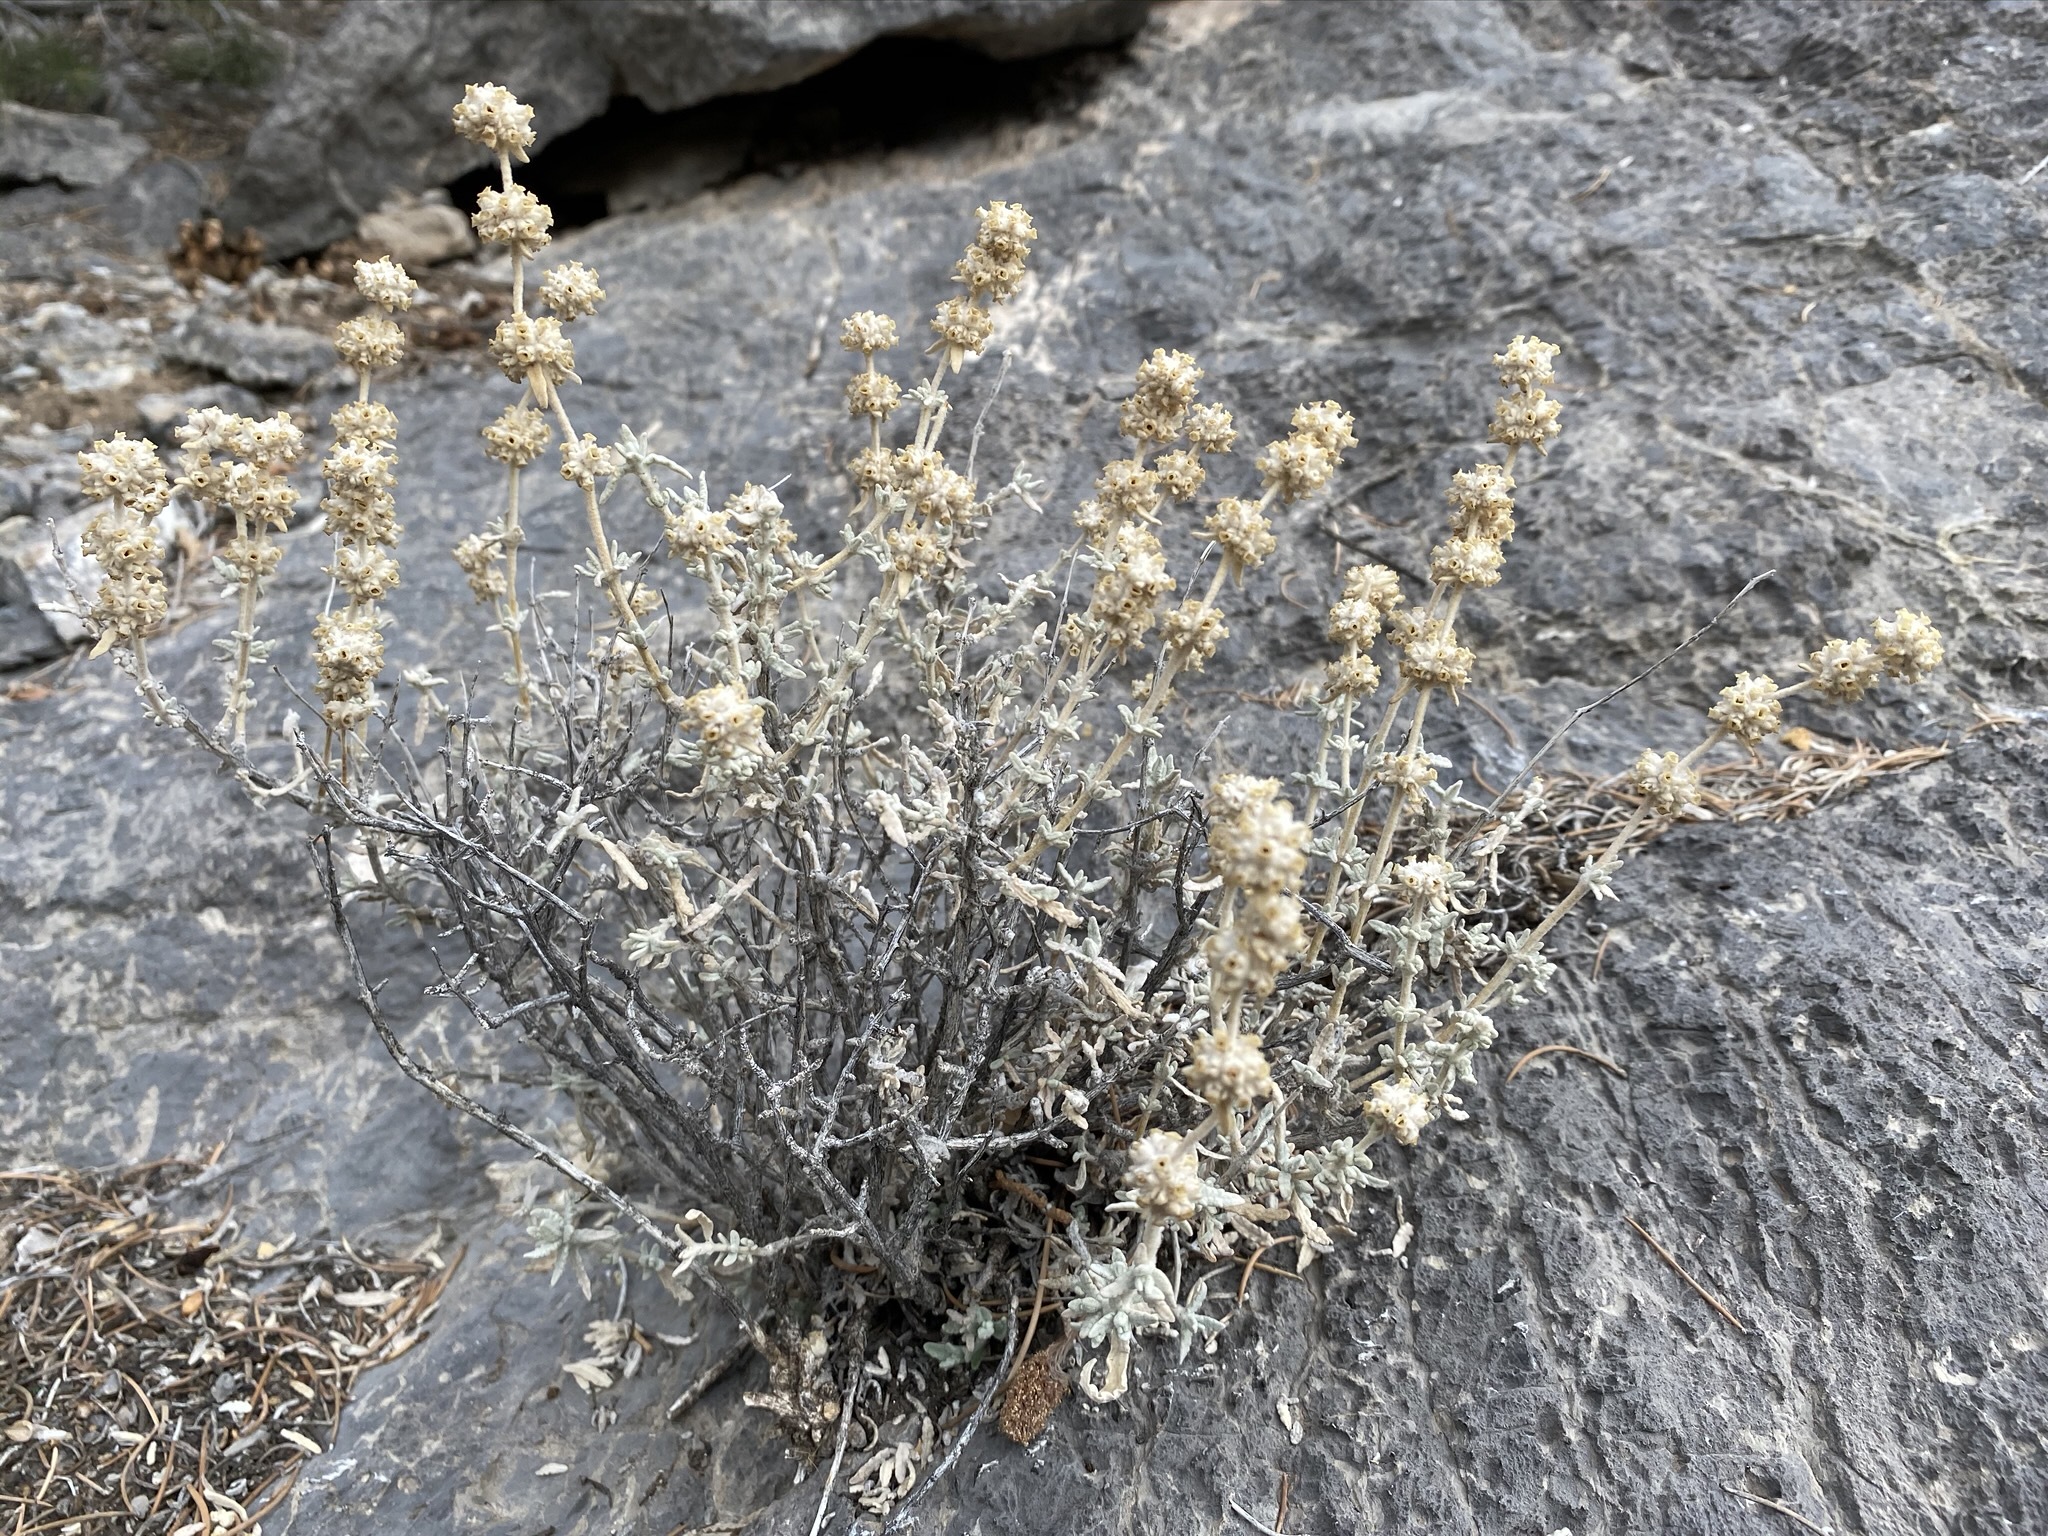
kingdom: Plantae
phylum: Tracheophyta
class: Magnoliopsida
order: Lamiales
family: Scrophulariaceae
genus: Buddleja
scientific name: Buddleja utahensis
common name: Utah butterfly-bush
